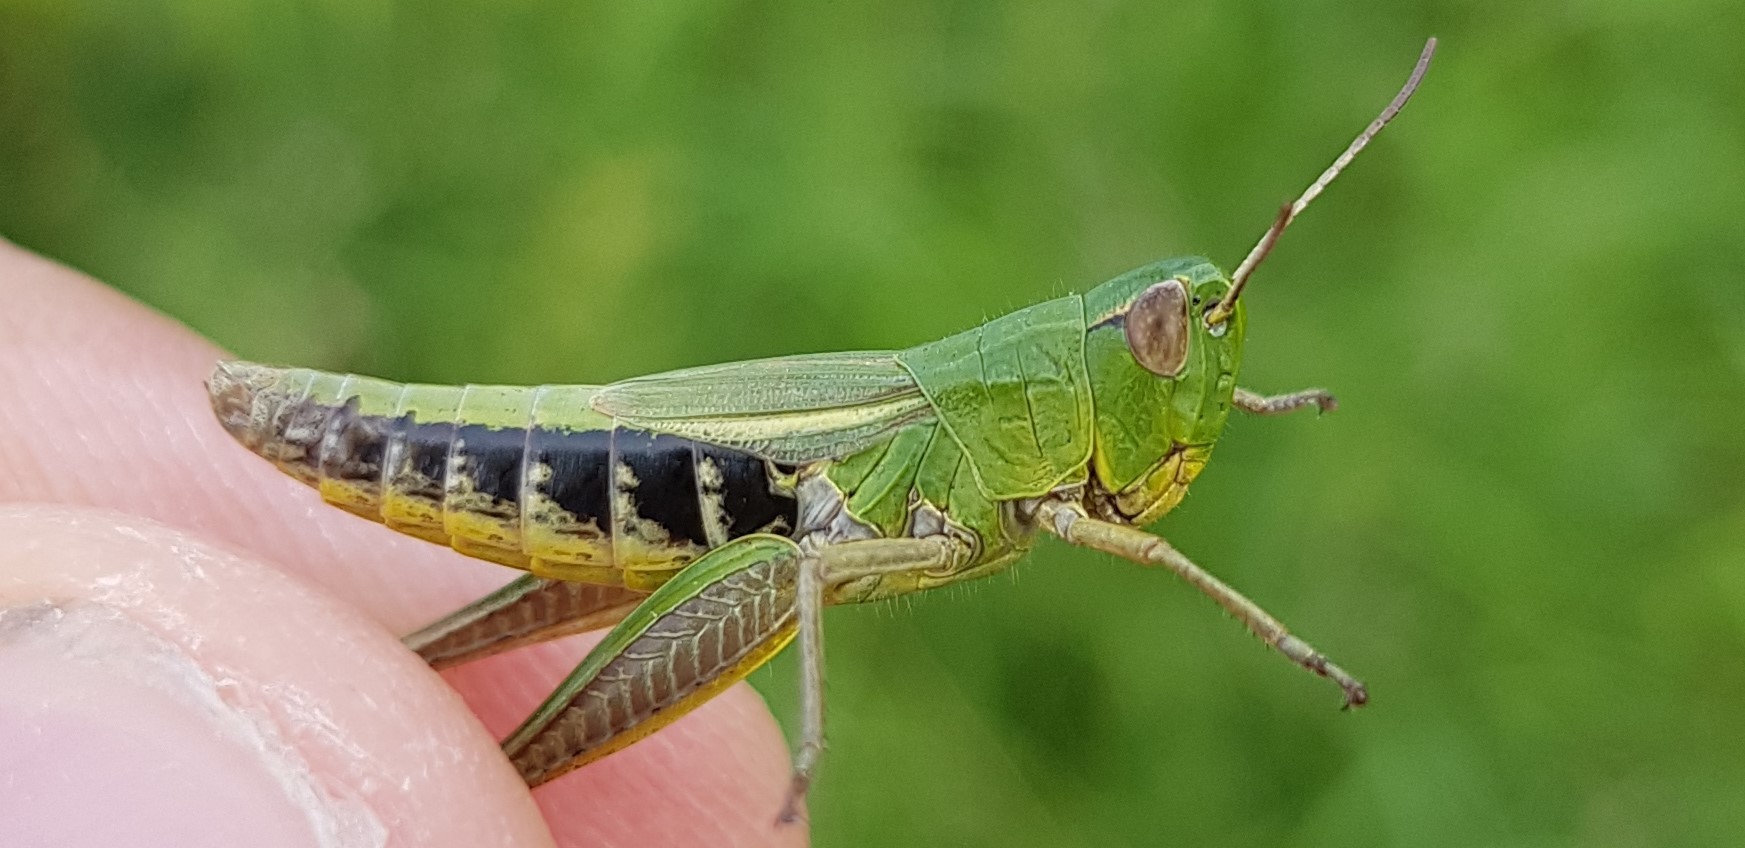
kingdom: Animalia
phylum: Arthropoda
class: Insecta
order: Orthoptera
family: Acrididae
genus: Pseudochorthippus
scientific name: Pseudochorthippus parallelus
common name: Meadow grasshopper
